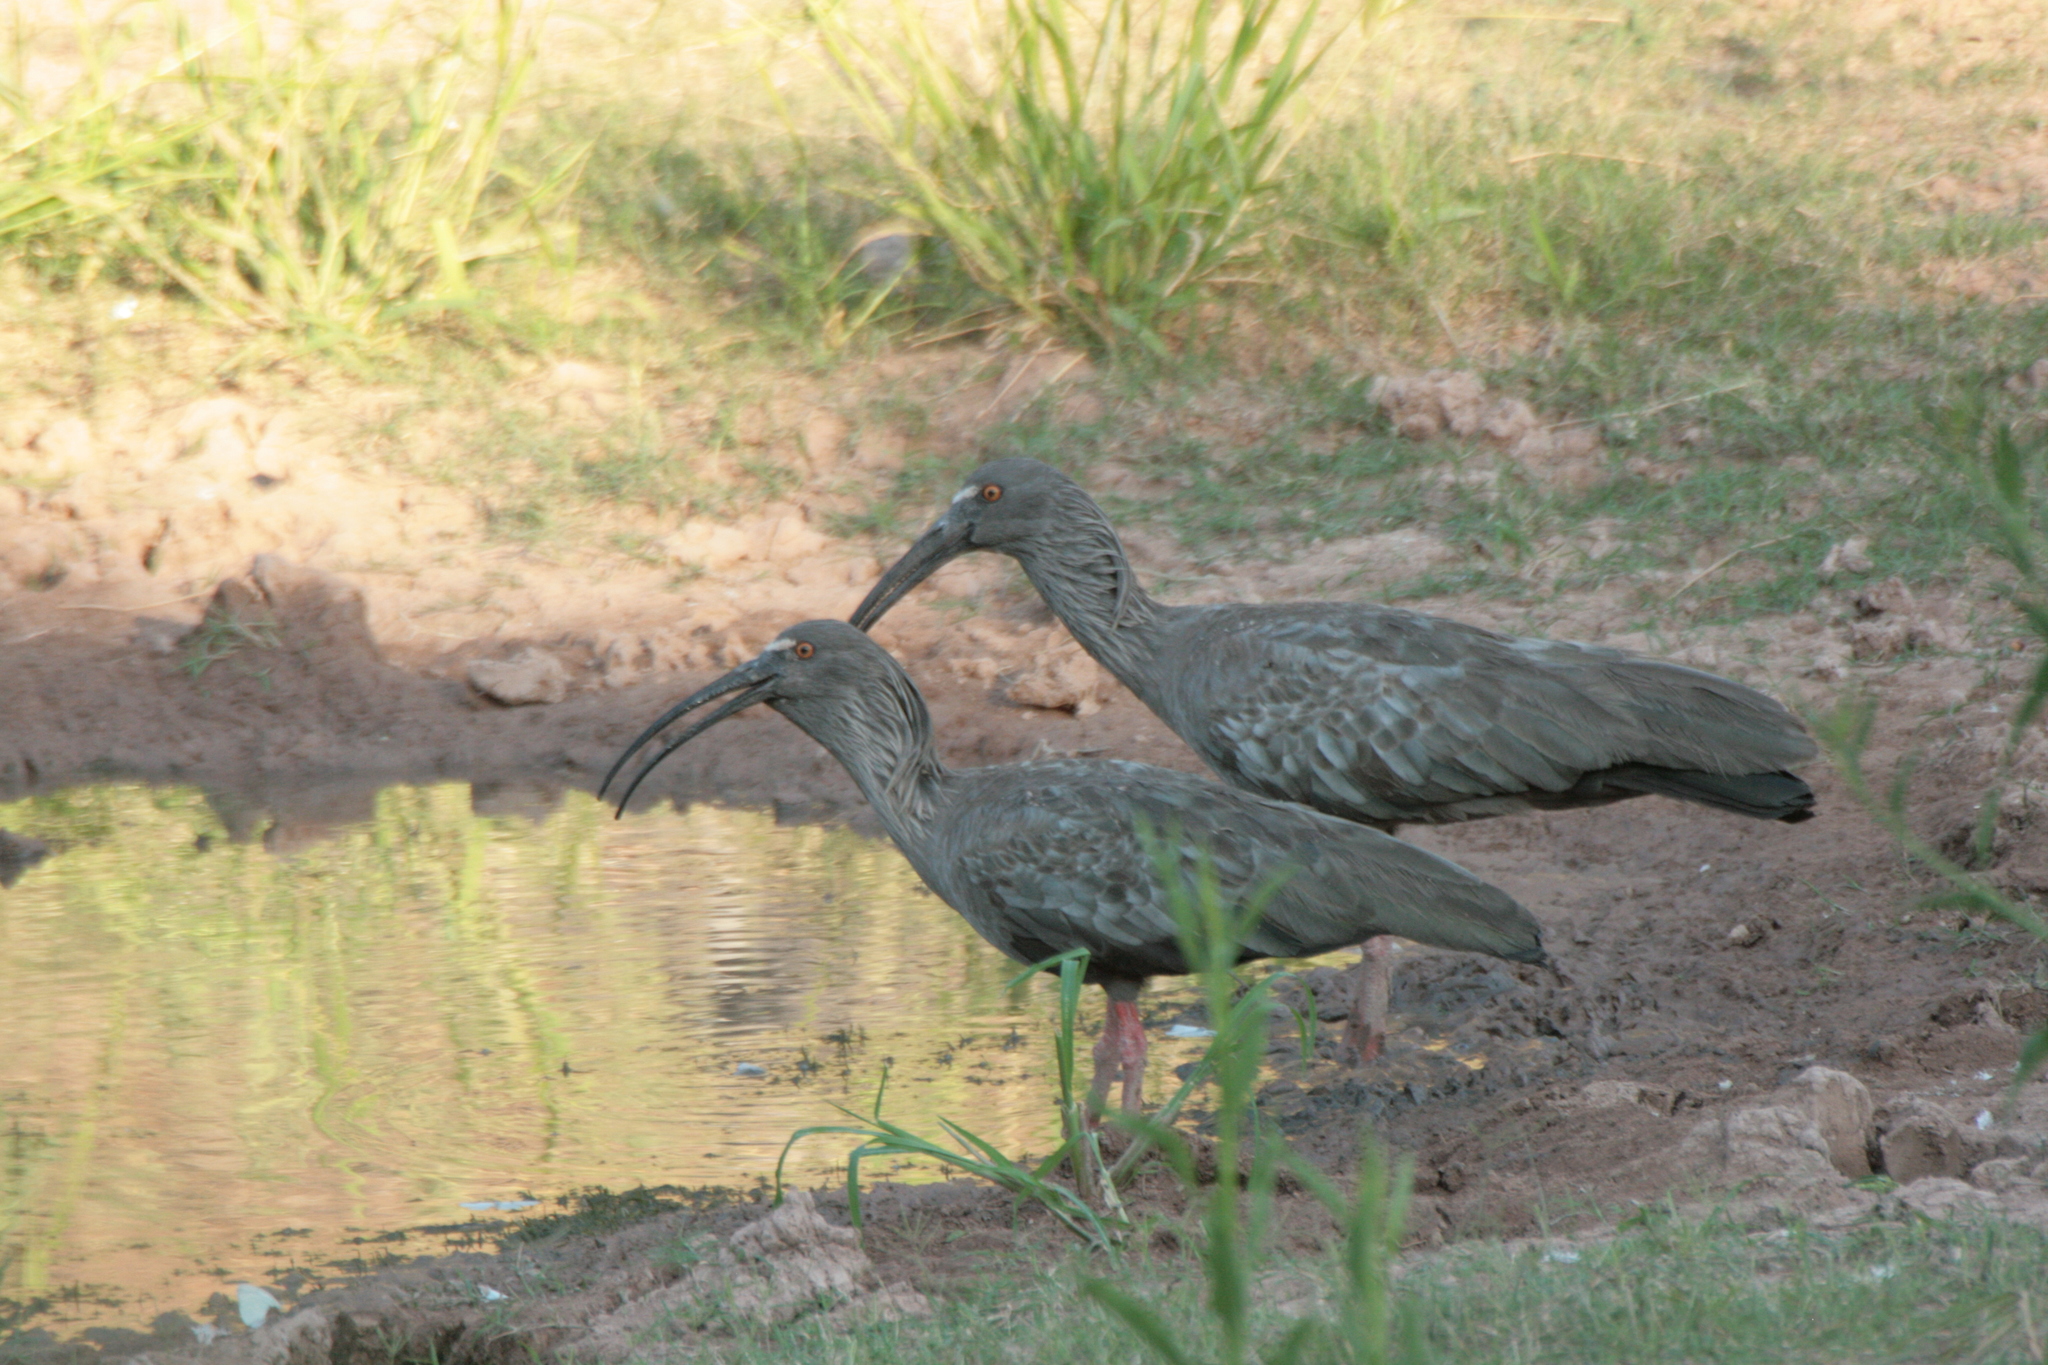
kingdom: Animalia
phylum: Chordata
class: Aves
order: Pelecaniformes
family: Threskiornithidae
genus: Theristicus
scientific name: Theristicus caerulescens
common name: Plumbeous ibis
